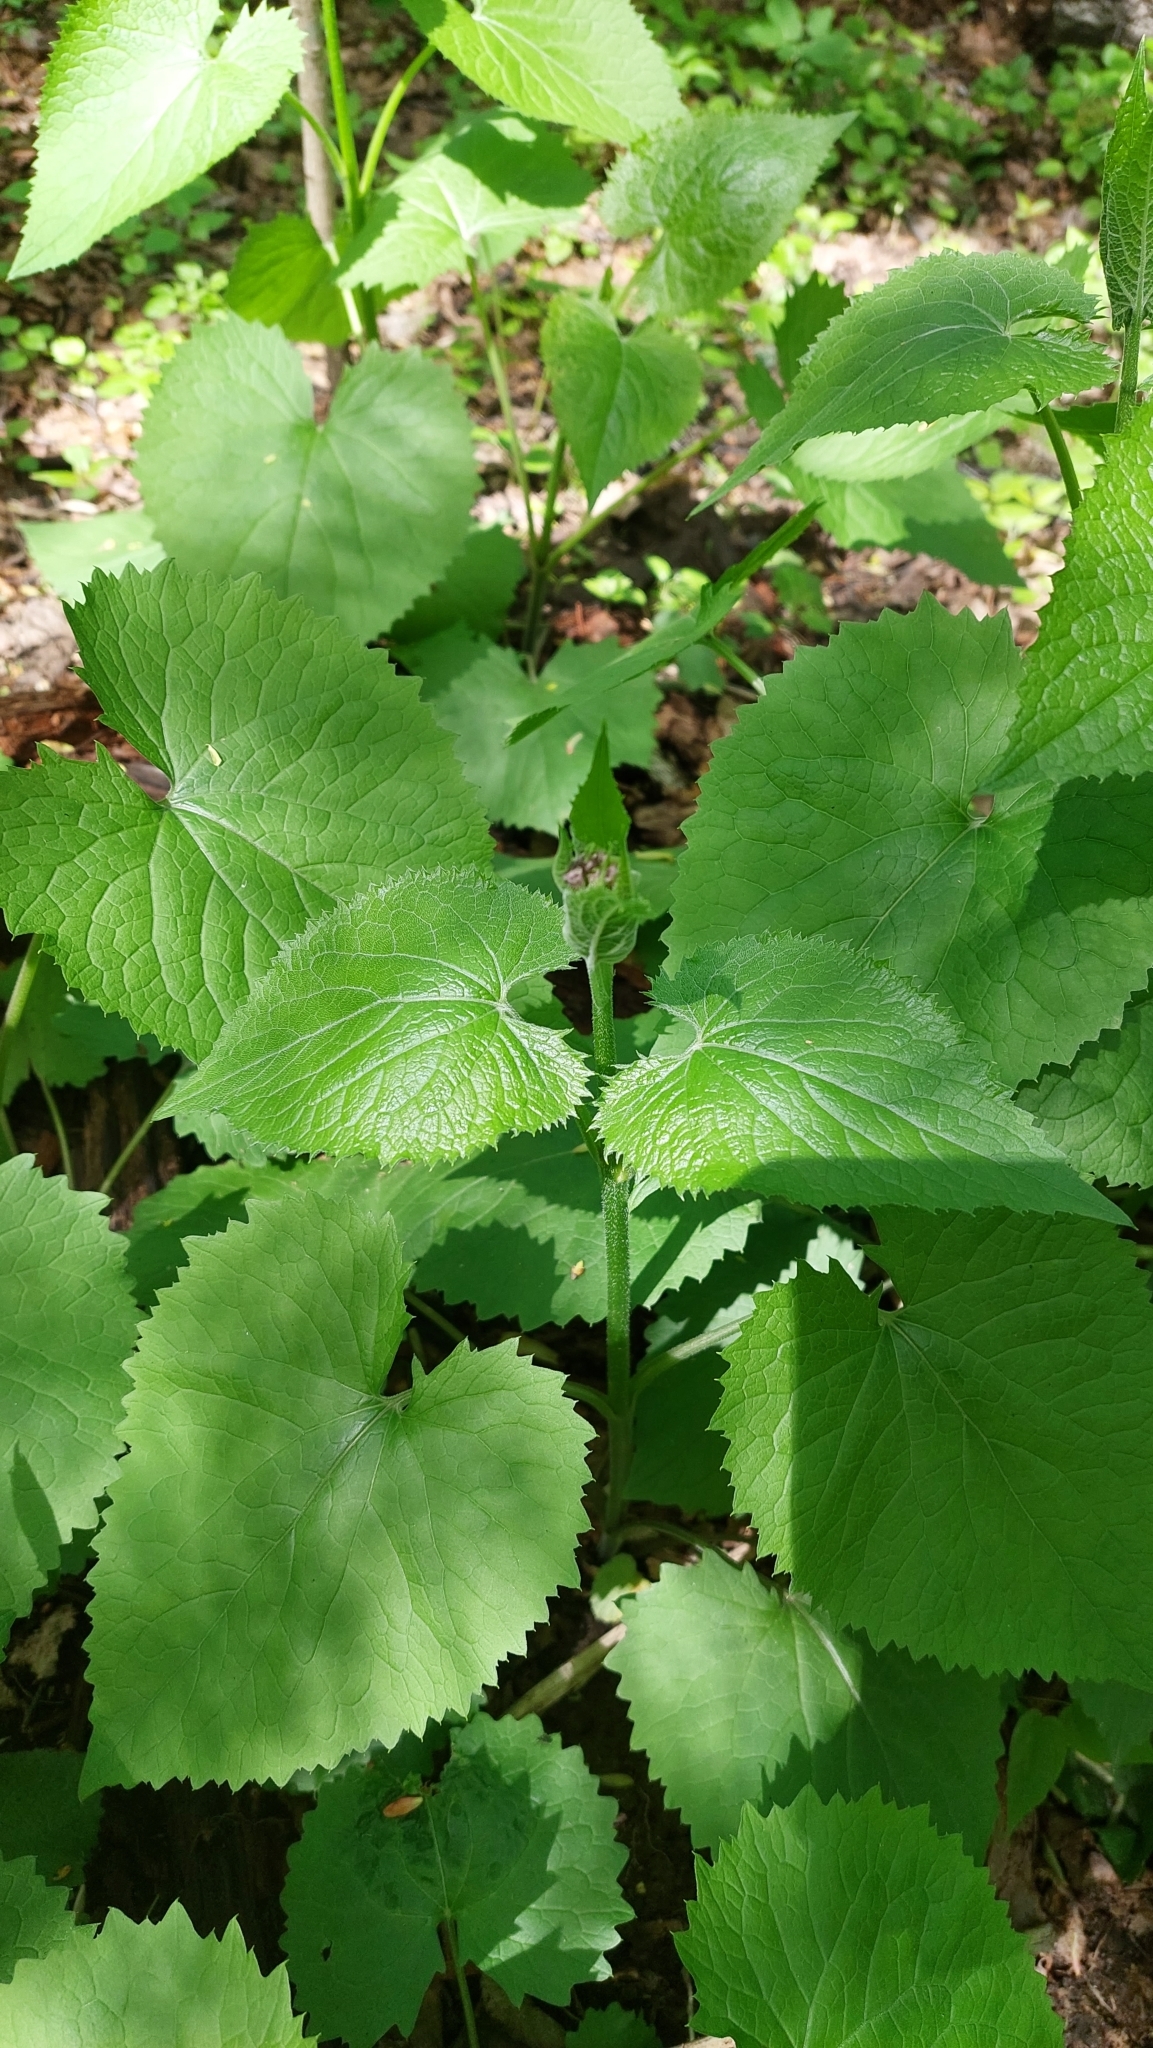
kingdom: Plantae
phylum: Tracheophyta
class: Magnoliopsida
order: Brassicales
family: Brassicaceae
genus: Lunaria
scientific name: Lunaria rediviva
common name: Perennial honesty
